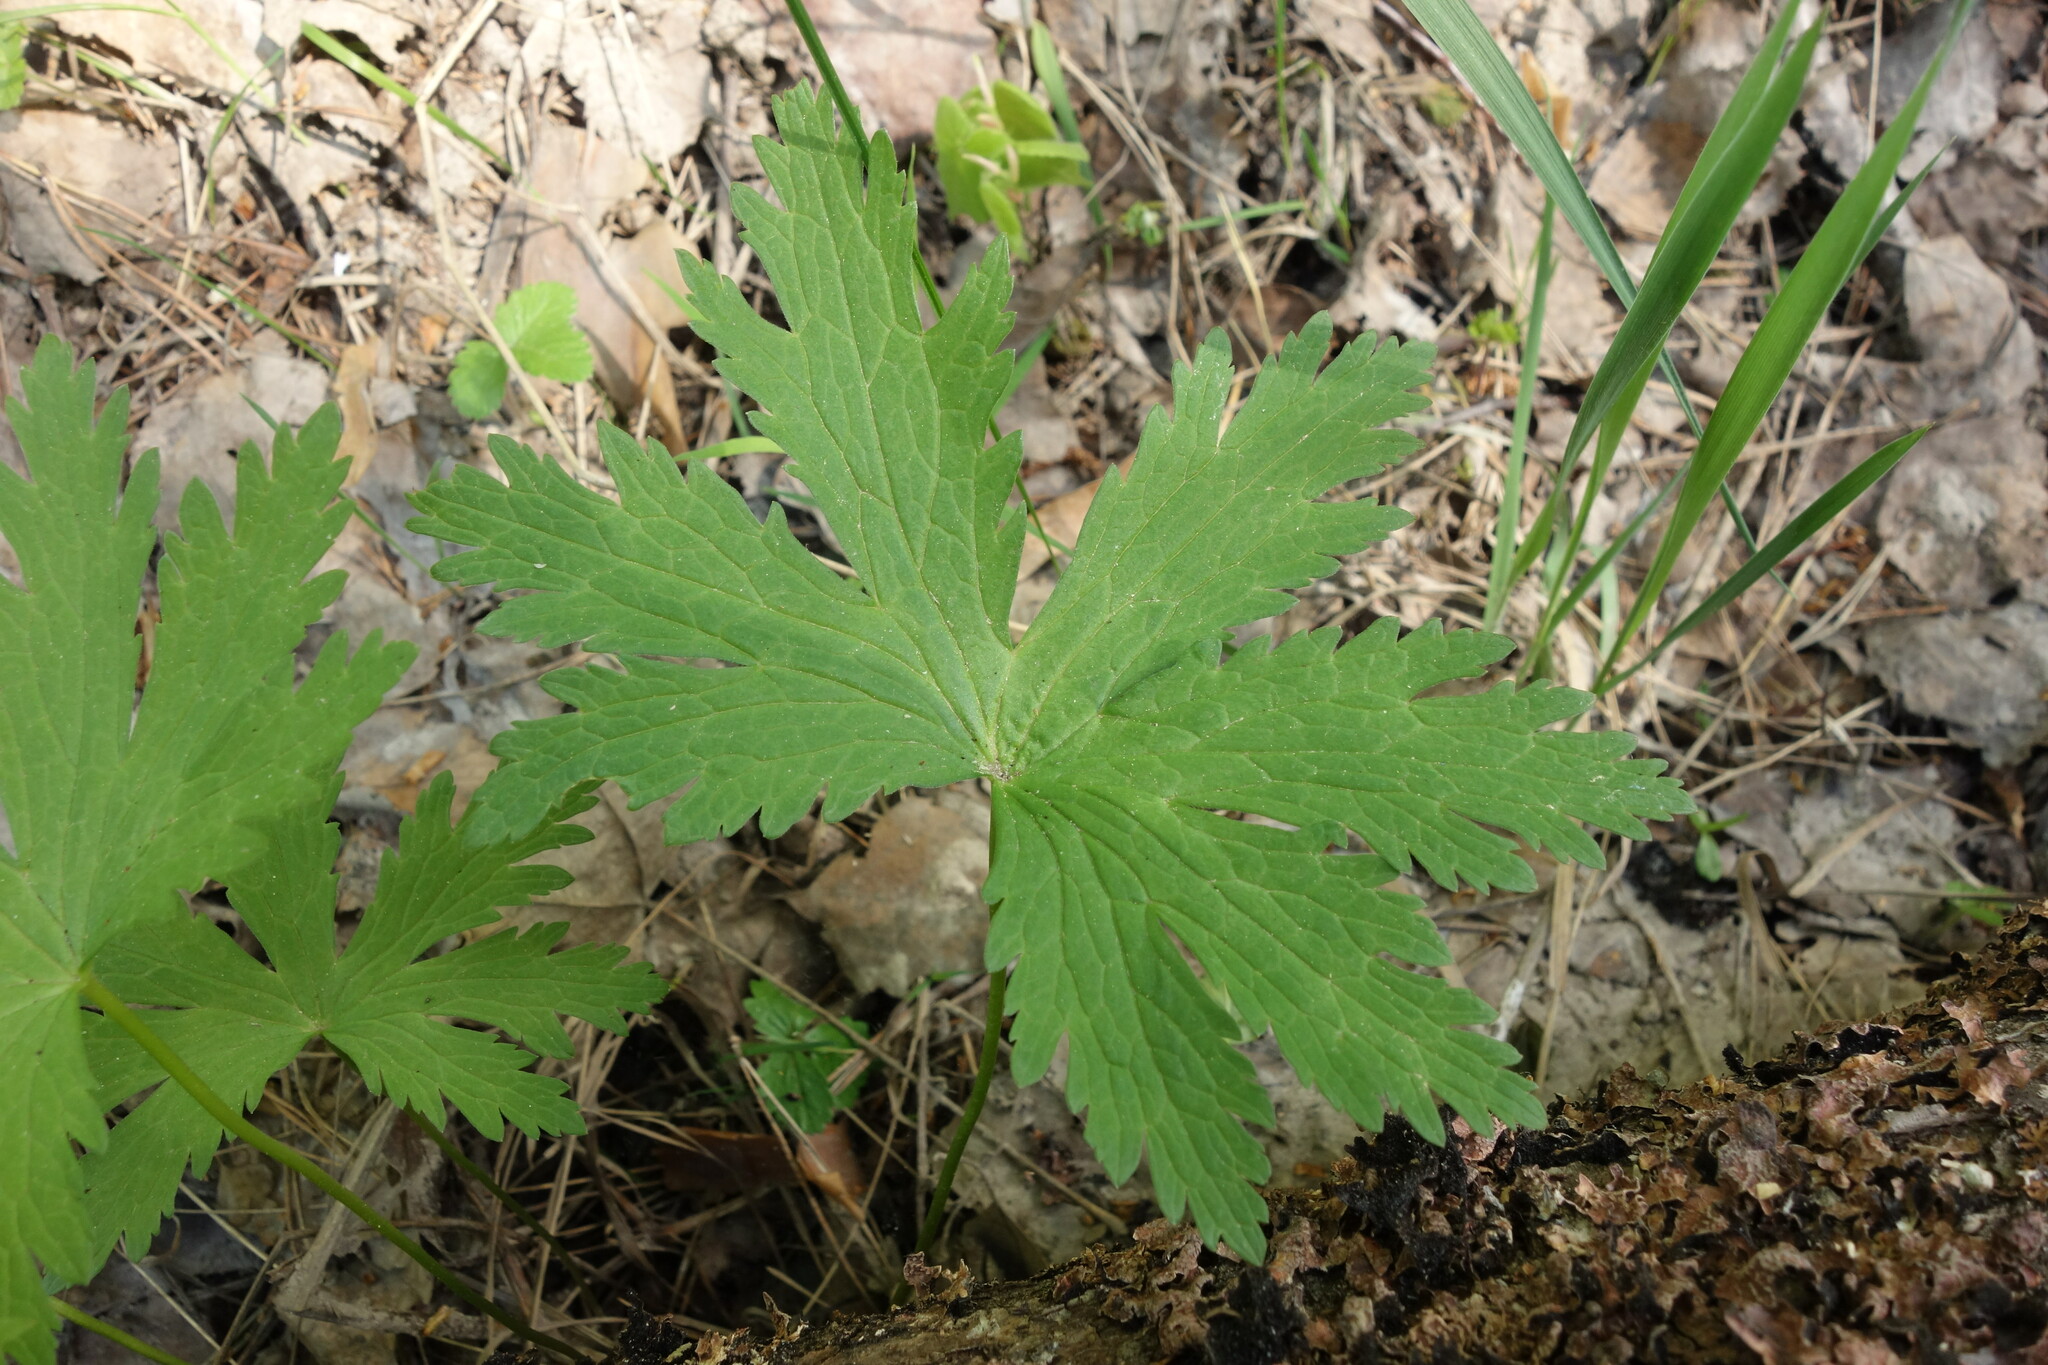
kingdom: Plantae
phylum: Tracheophyta
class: Magnoliopsida
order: Geraniales
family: Geraniaceae
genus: Geranium
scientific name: Geranium sylvaticum
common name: Wood crane's-bill
